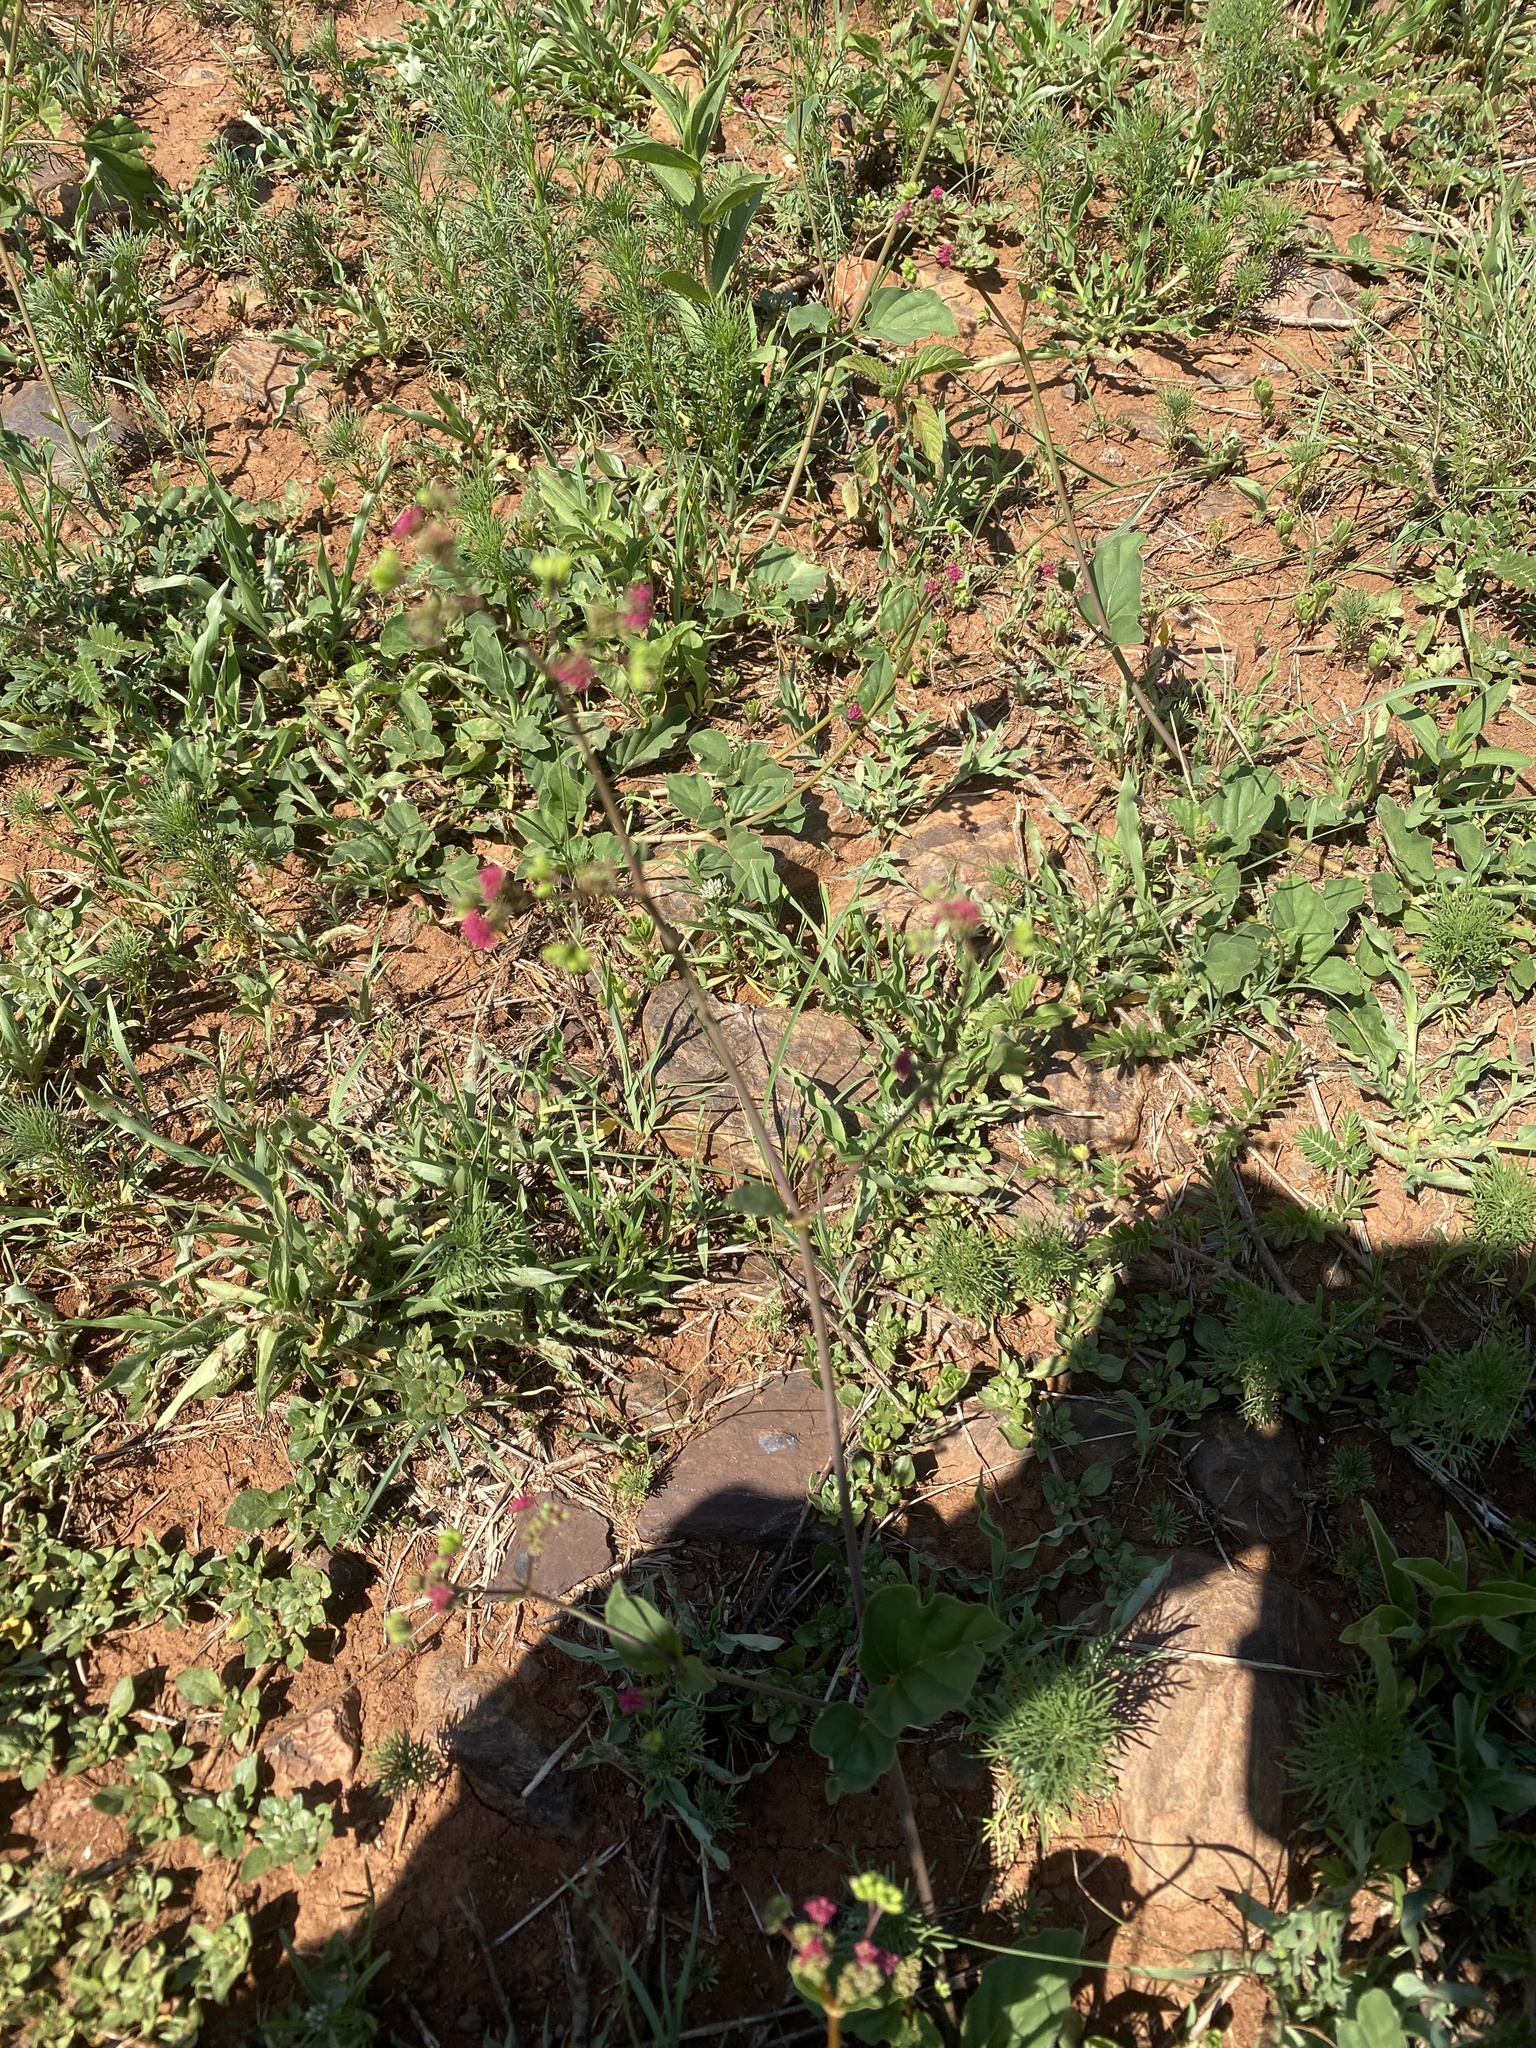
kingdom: Plantae
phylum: Tracheophyta
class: Magnoliopsida
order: Caryophyllales
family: Nyctaginaceae
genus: Boerhavia
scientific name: Boerhavia diffusa
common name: Red spiderling
